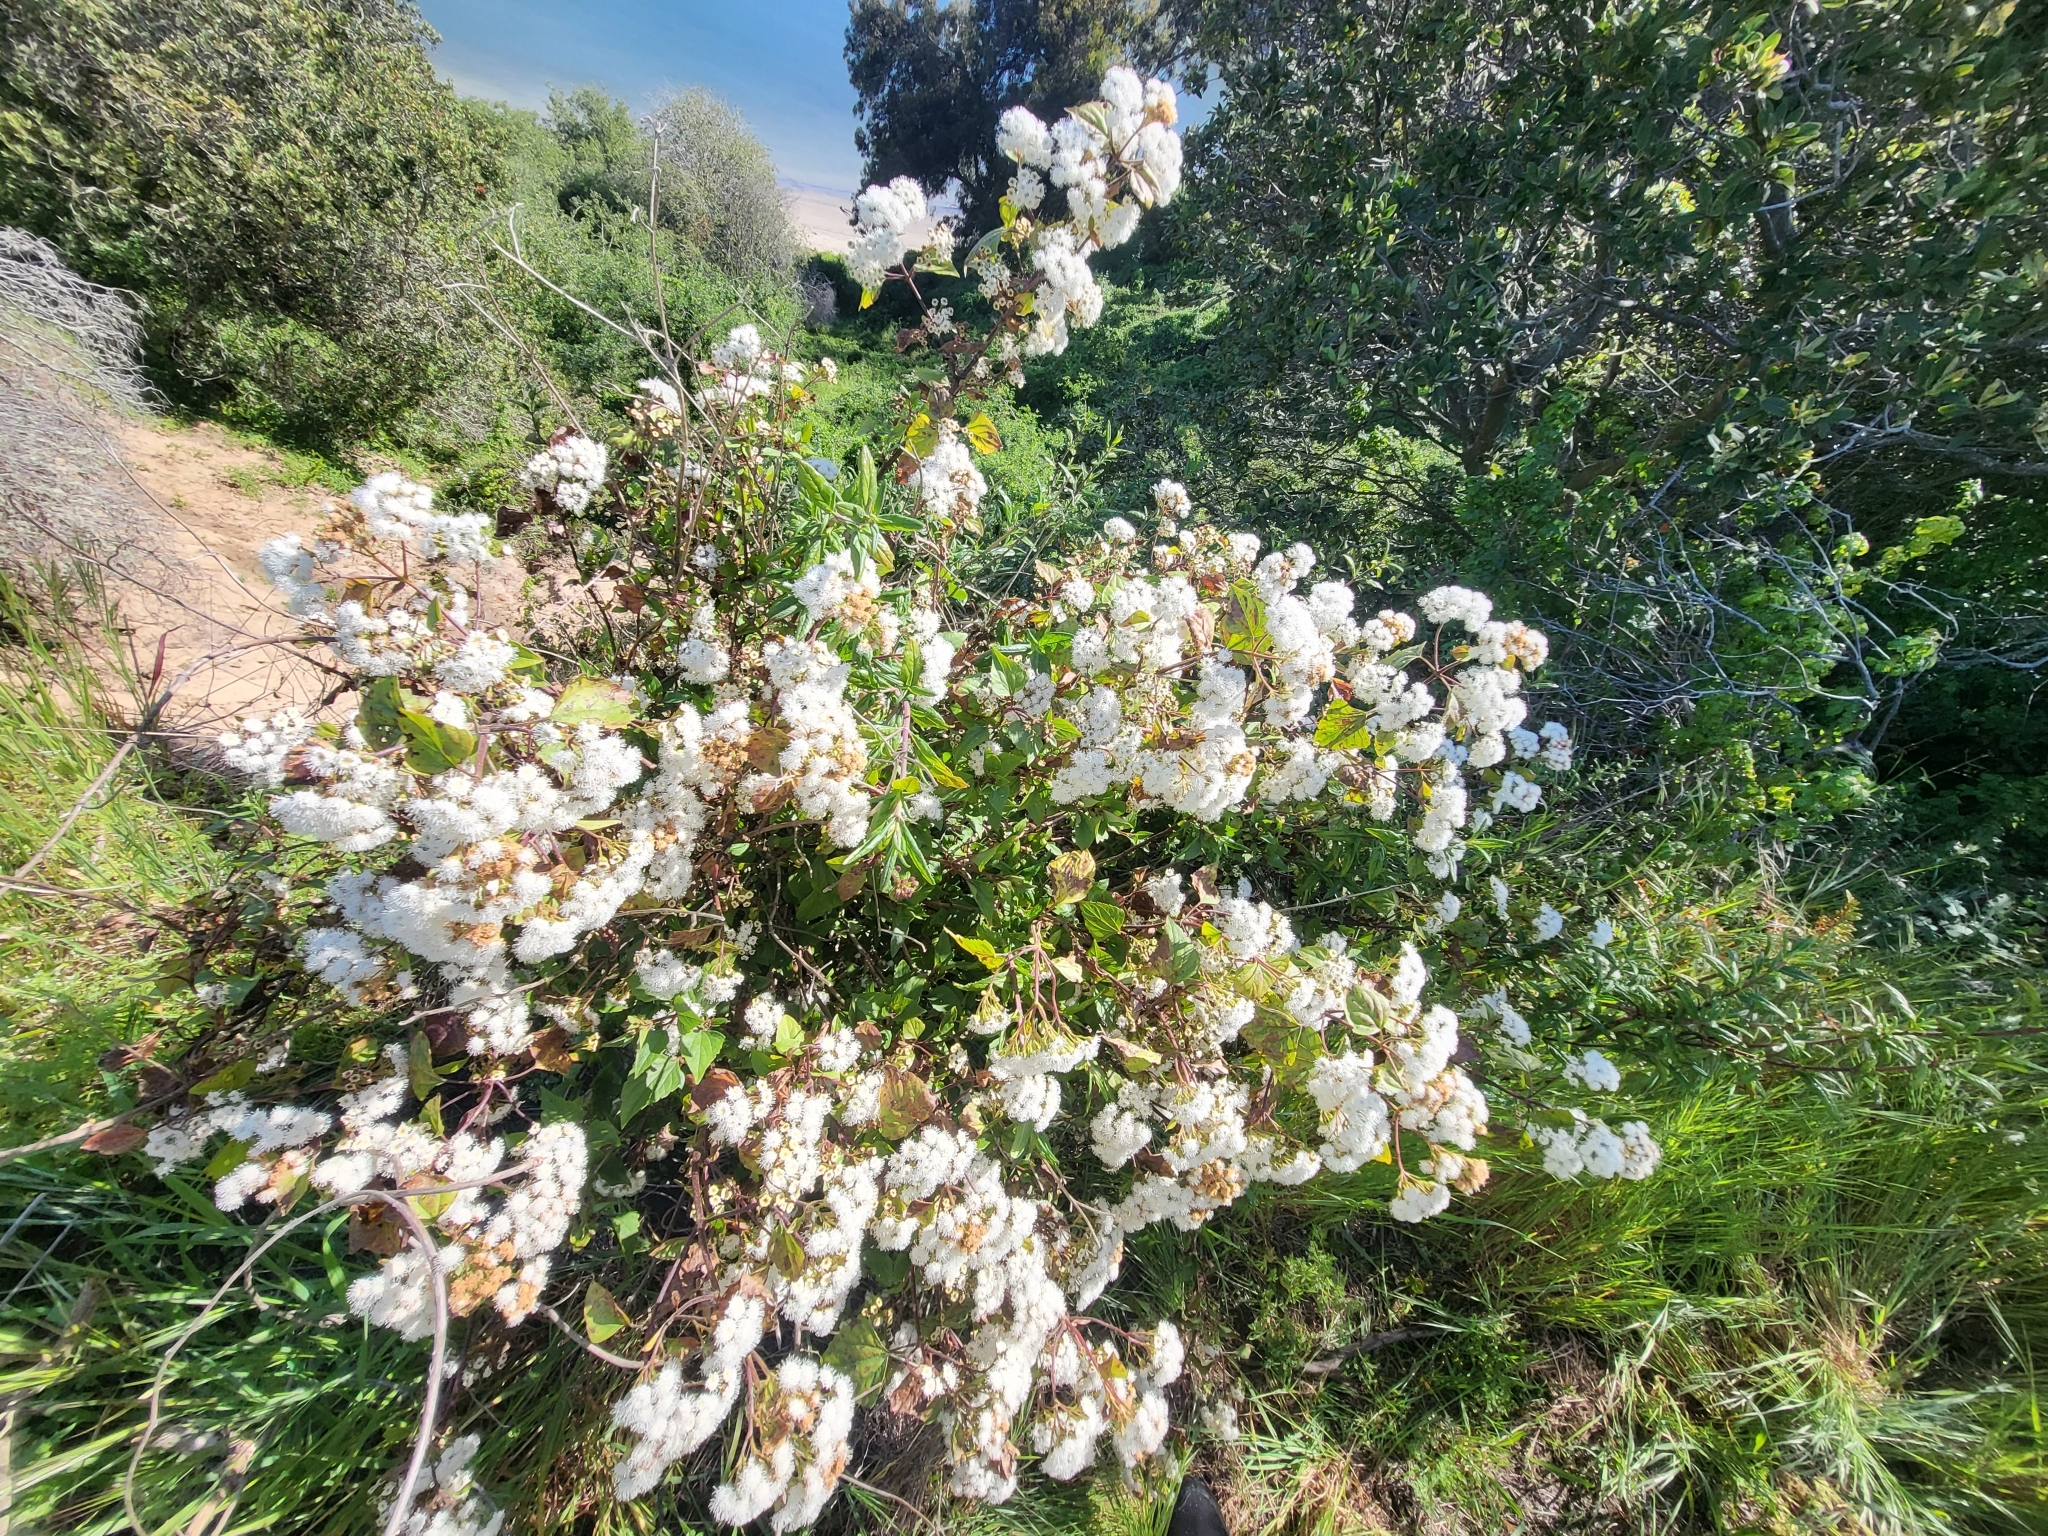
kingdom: Plantae
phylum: Tracheophyta
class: Magnoliopsida
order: Asterales
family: Asteraceae
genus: Ageratina
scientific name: Ageratina adenophora
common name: Sticky snakeroot
